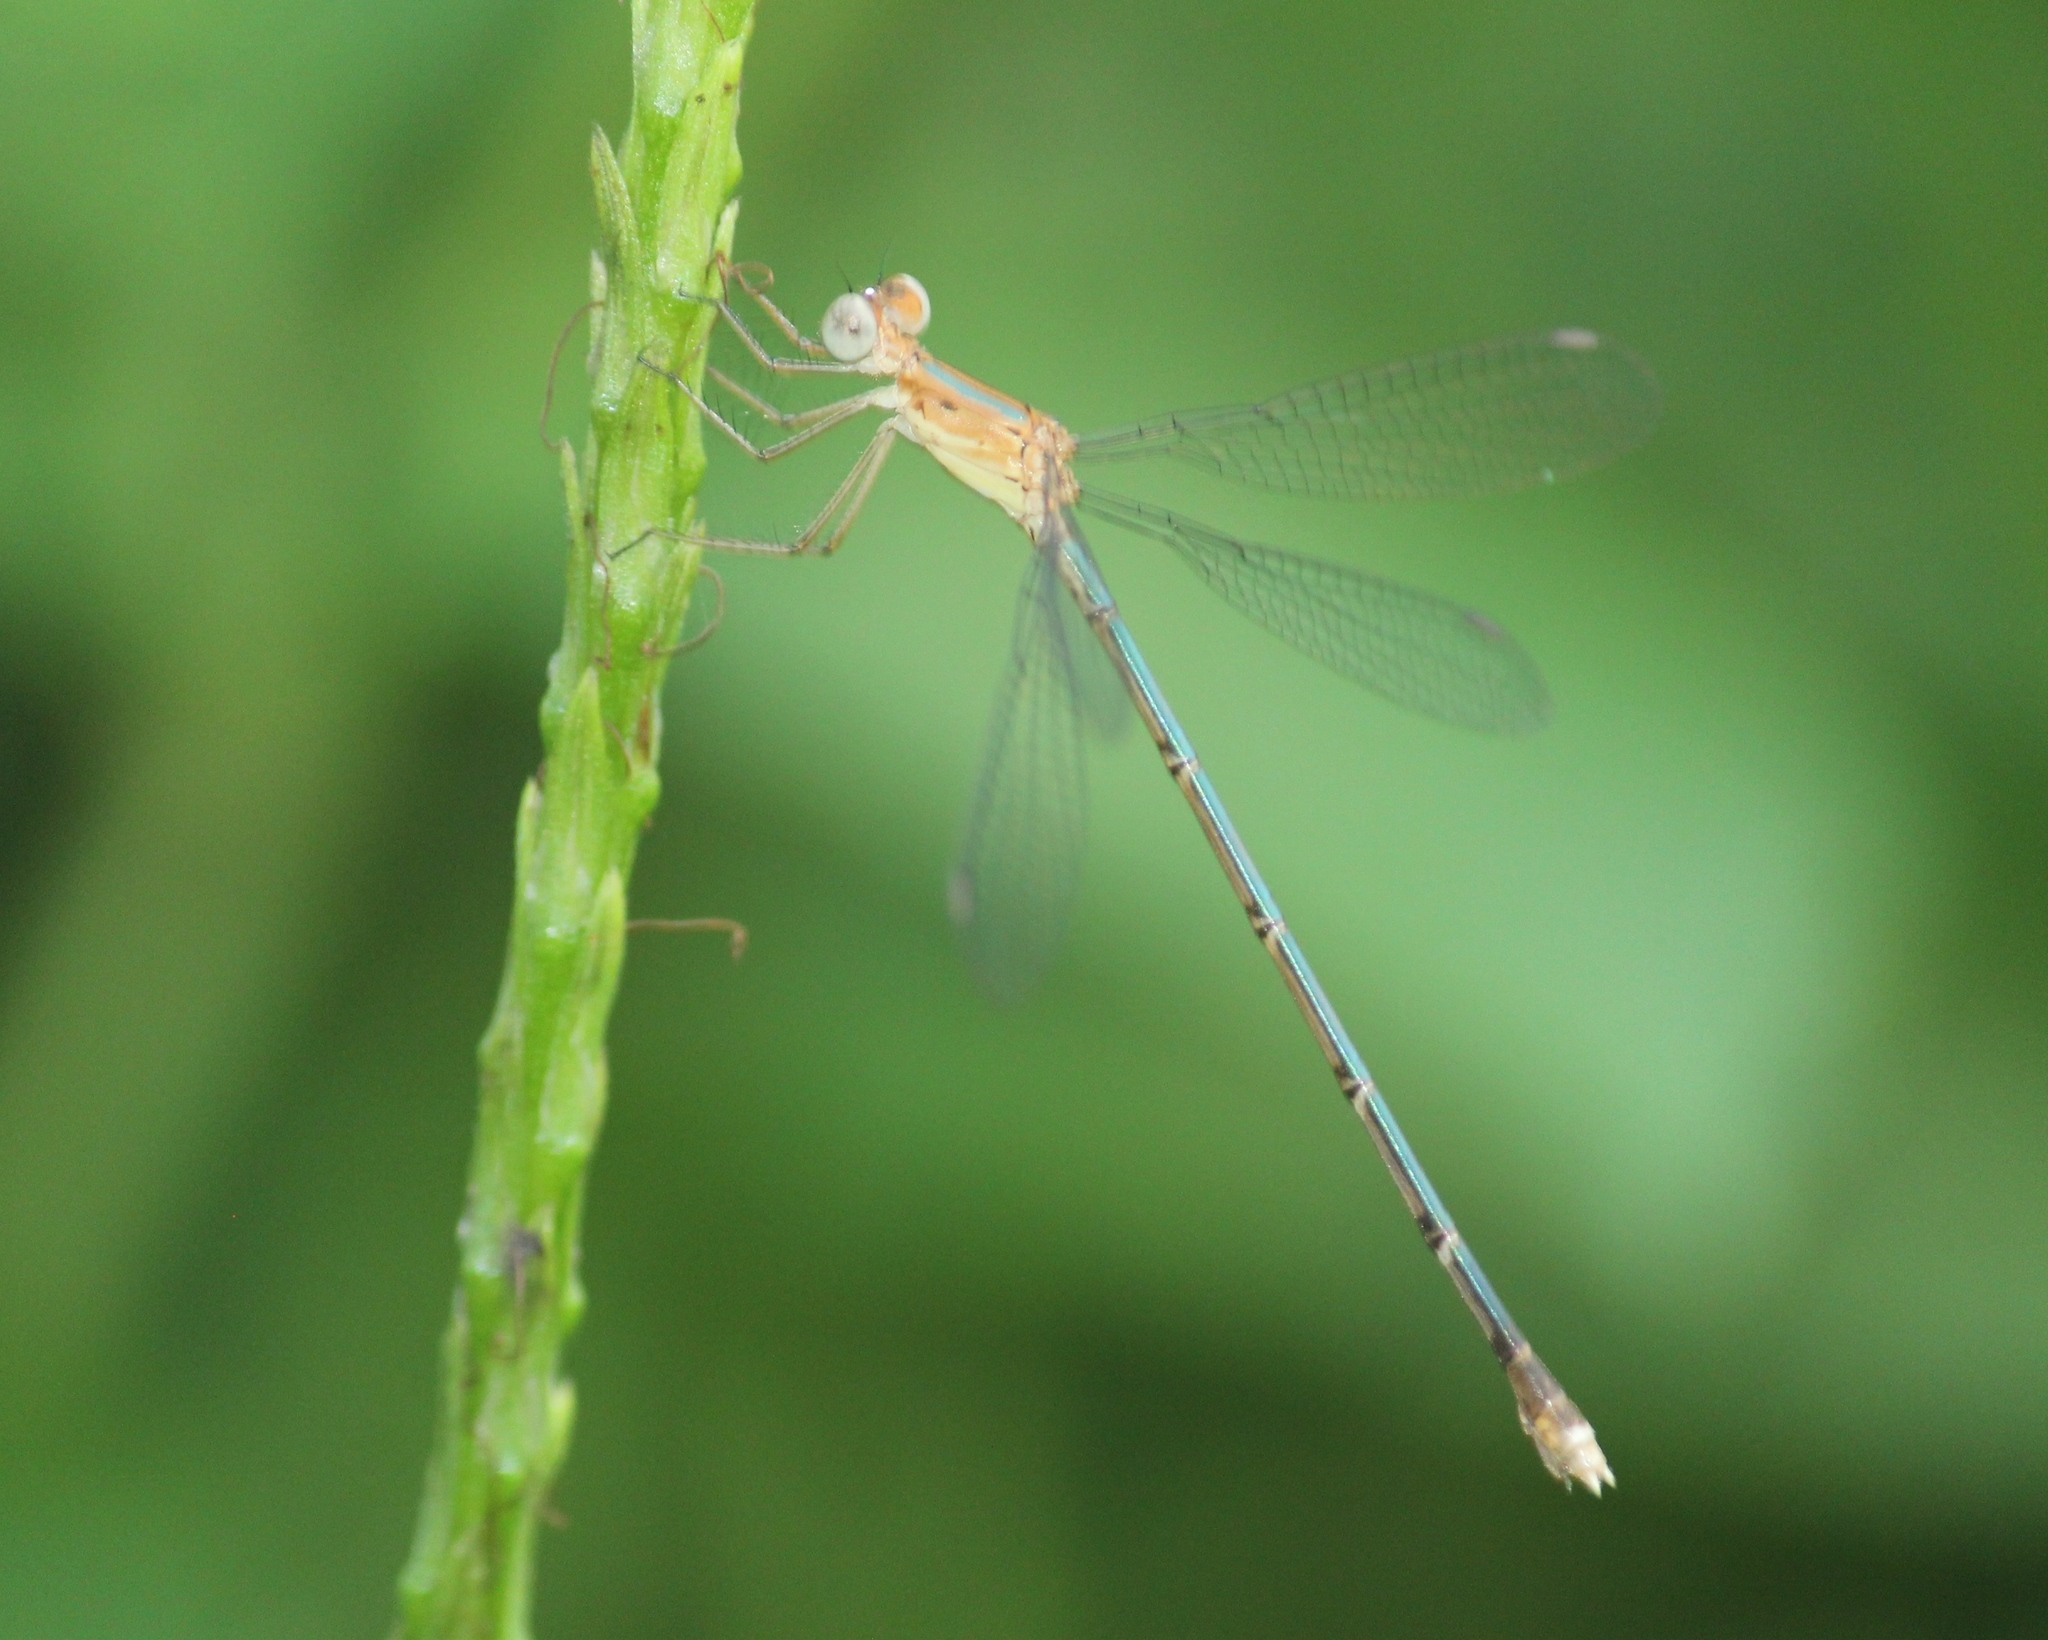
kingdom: Animalia
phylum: Arthropoda
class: Insecta
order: Odonata
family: Lestidae
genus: Lestes
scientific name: Lestes elatus
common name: Emerald spreadwing
